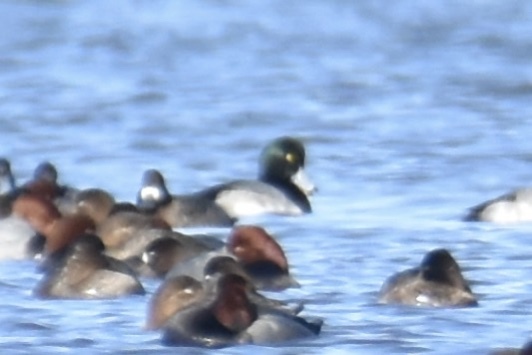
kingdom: Animalia
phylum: Chordata
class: Aves
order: Anseriformes
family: Anatidae
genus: Aythya
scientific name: Aythya marila
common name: Greater scaup
